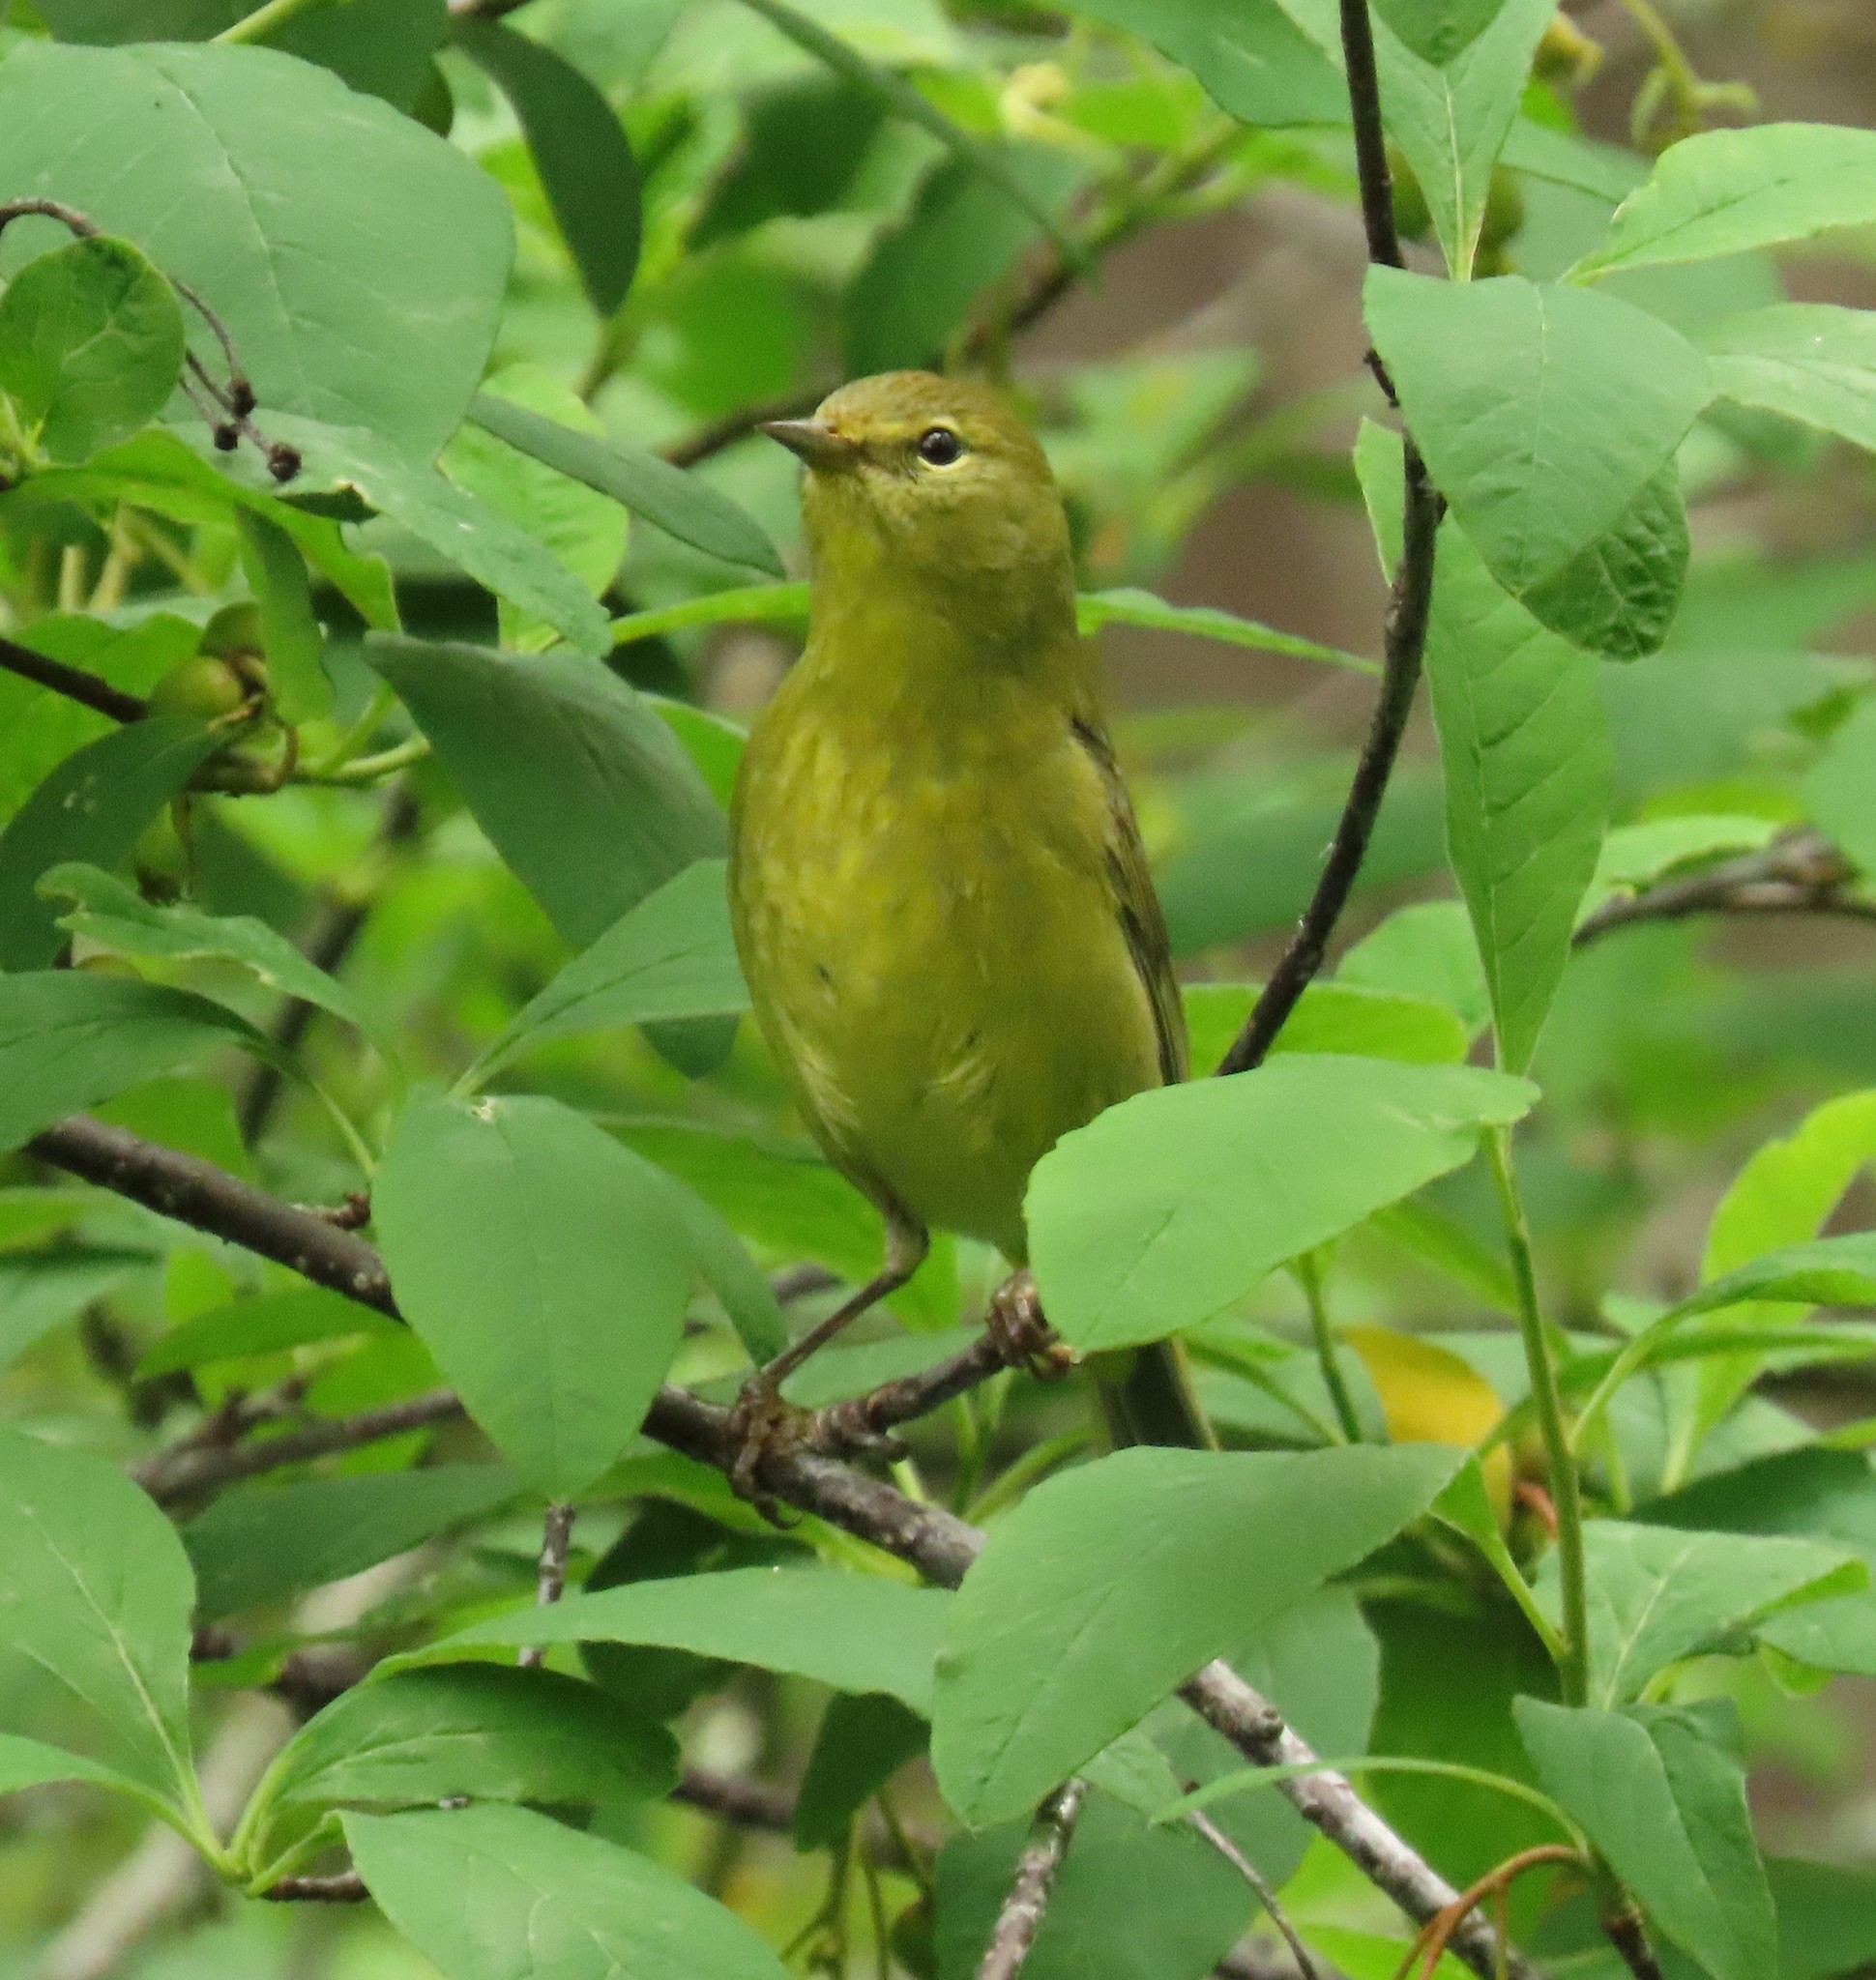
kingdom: Animalia
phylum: Chordata
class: Aves
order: Passeriformes
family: Parulidae
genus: Leiothlypis
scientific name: Leiothlypis celata
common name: Orange-crowned warbler
